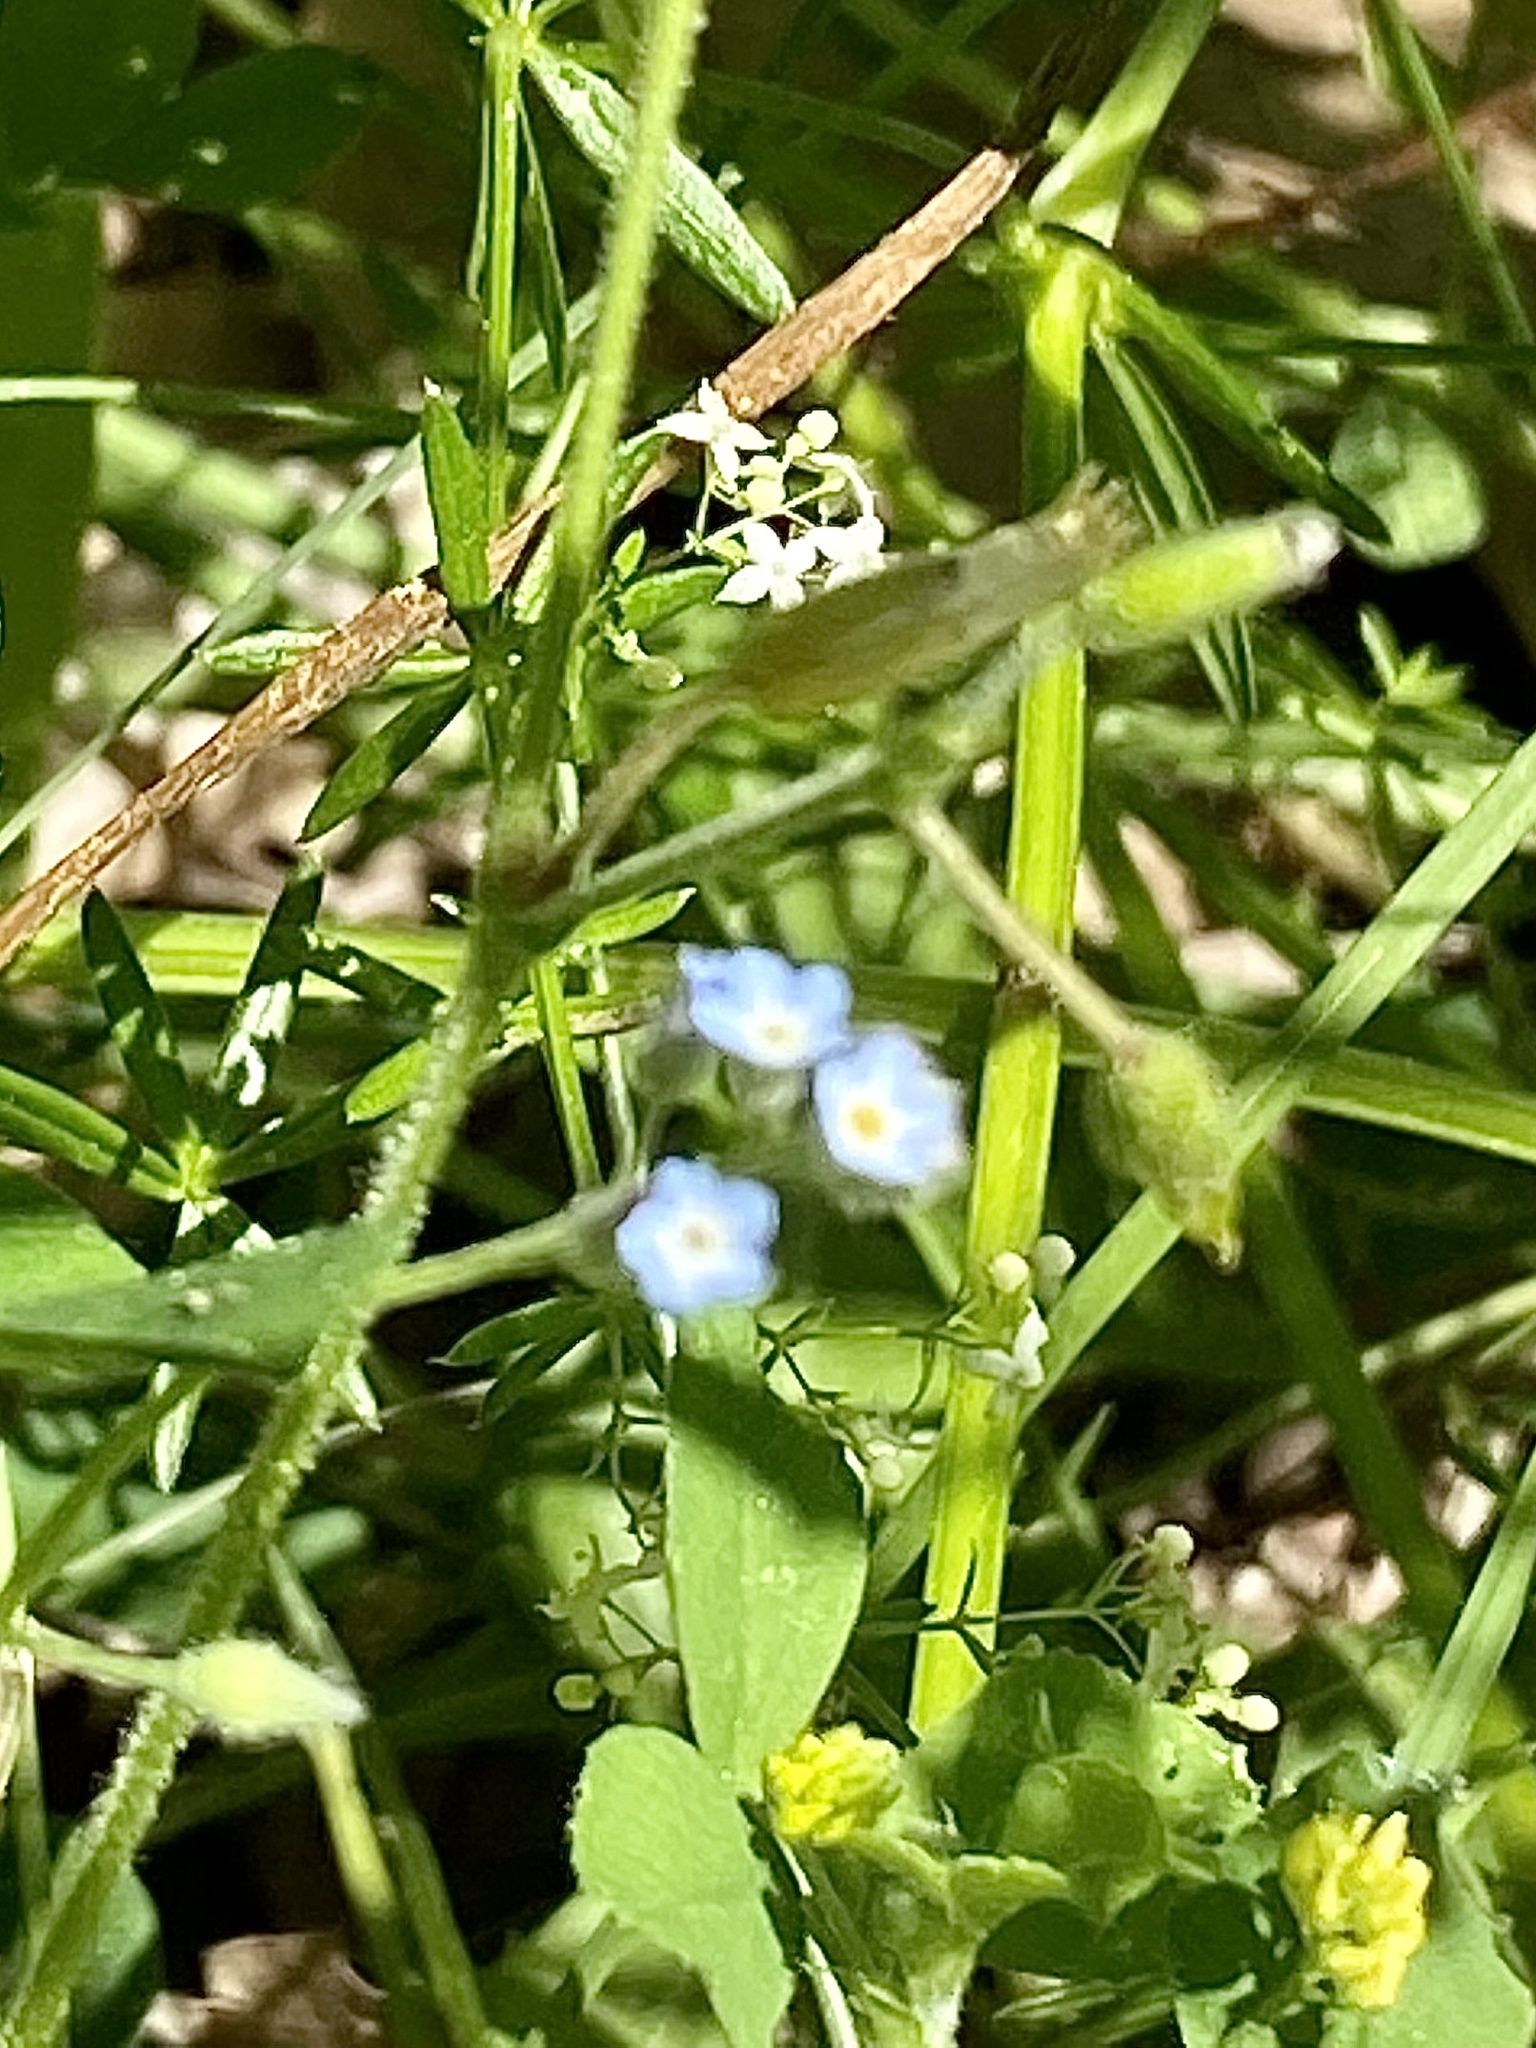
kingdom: Plantae
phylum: Tracheophyta
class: Magnoliopsida
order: Boraginales
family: Boraginaceae
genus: Myosotis
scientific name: Myosotis arvensis
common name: Field forget-me-not
